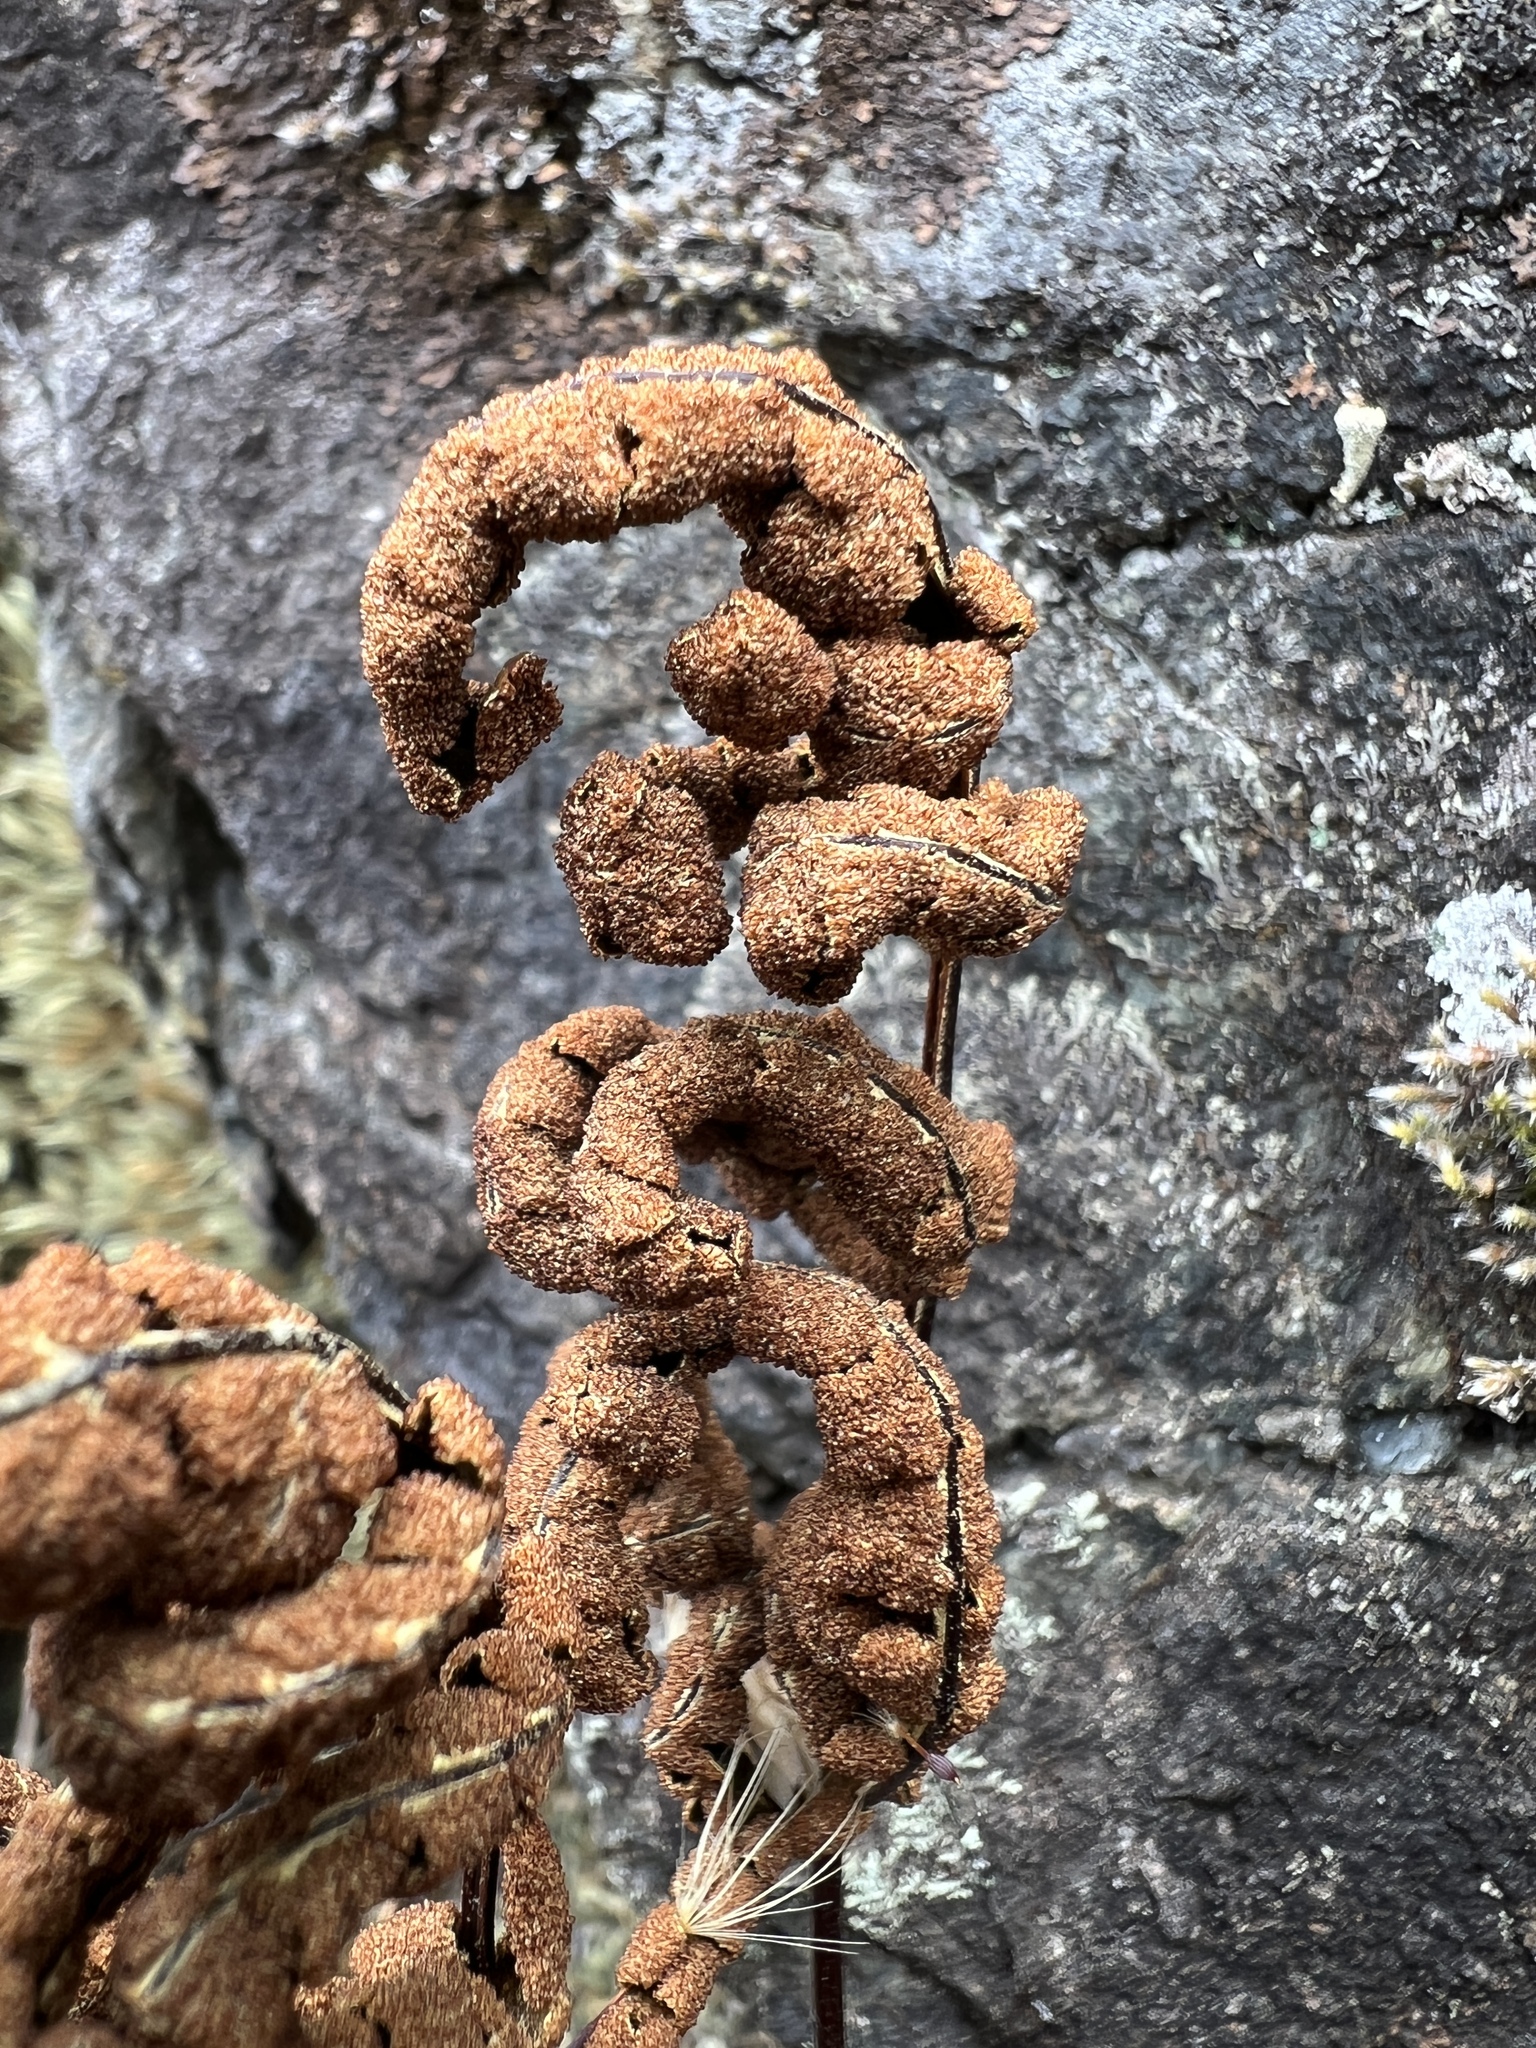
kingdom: Plantae
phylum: Tracheophyta
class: Polypodiopsida
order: Polypodiales
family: Pteridaceae
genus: Pentagramma
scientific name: Pentagramma triangularis
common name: Gold fern
